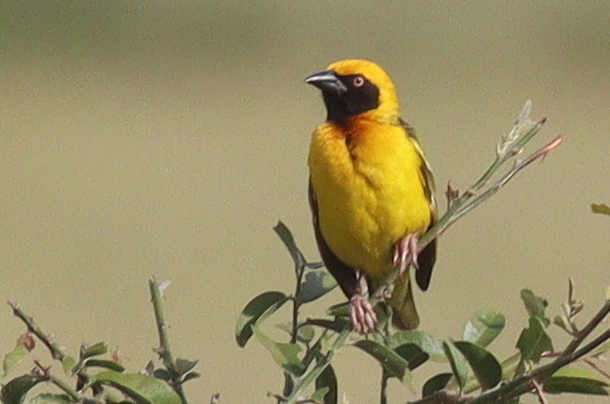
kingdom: Animalia
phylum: Chordata
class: Aves
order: Passeriformes
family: Ploceidae
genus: Ploceus
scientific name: Ploceus spekei
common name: Speke's weaver
